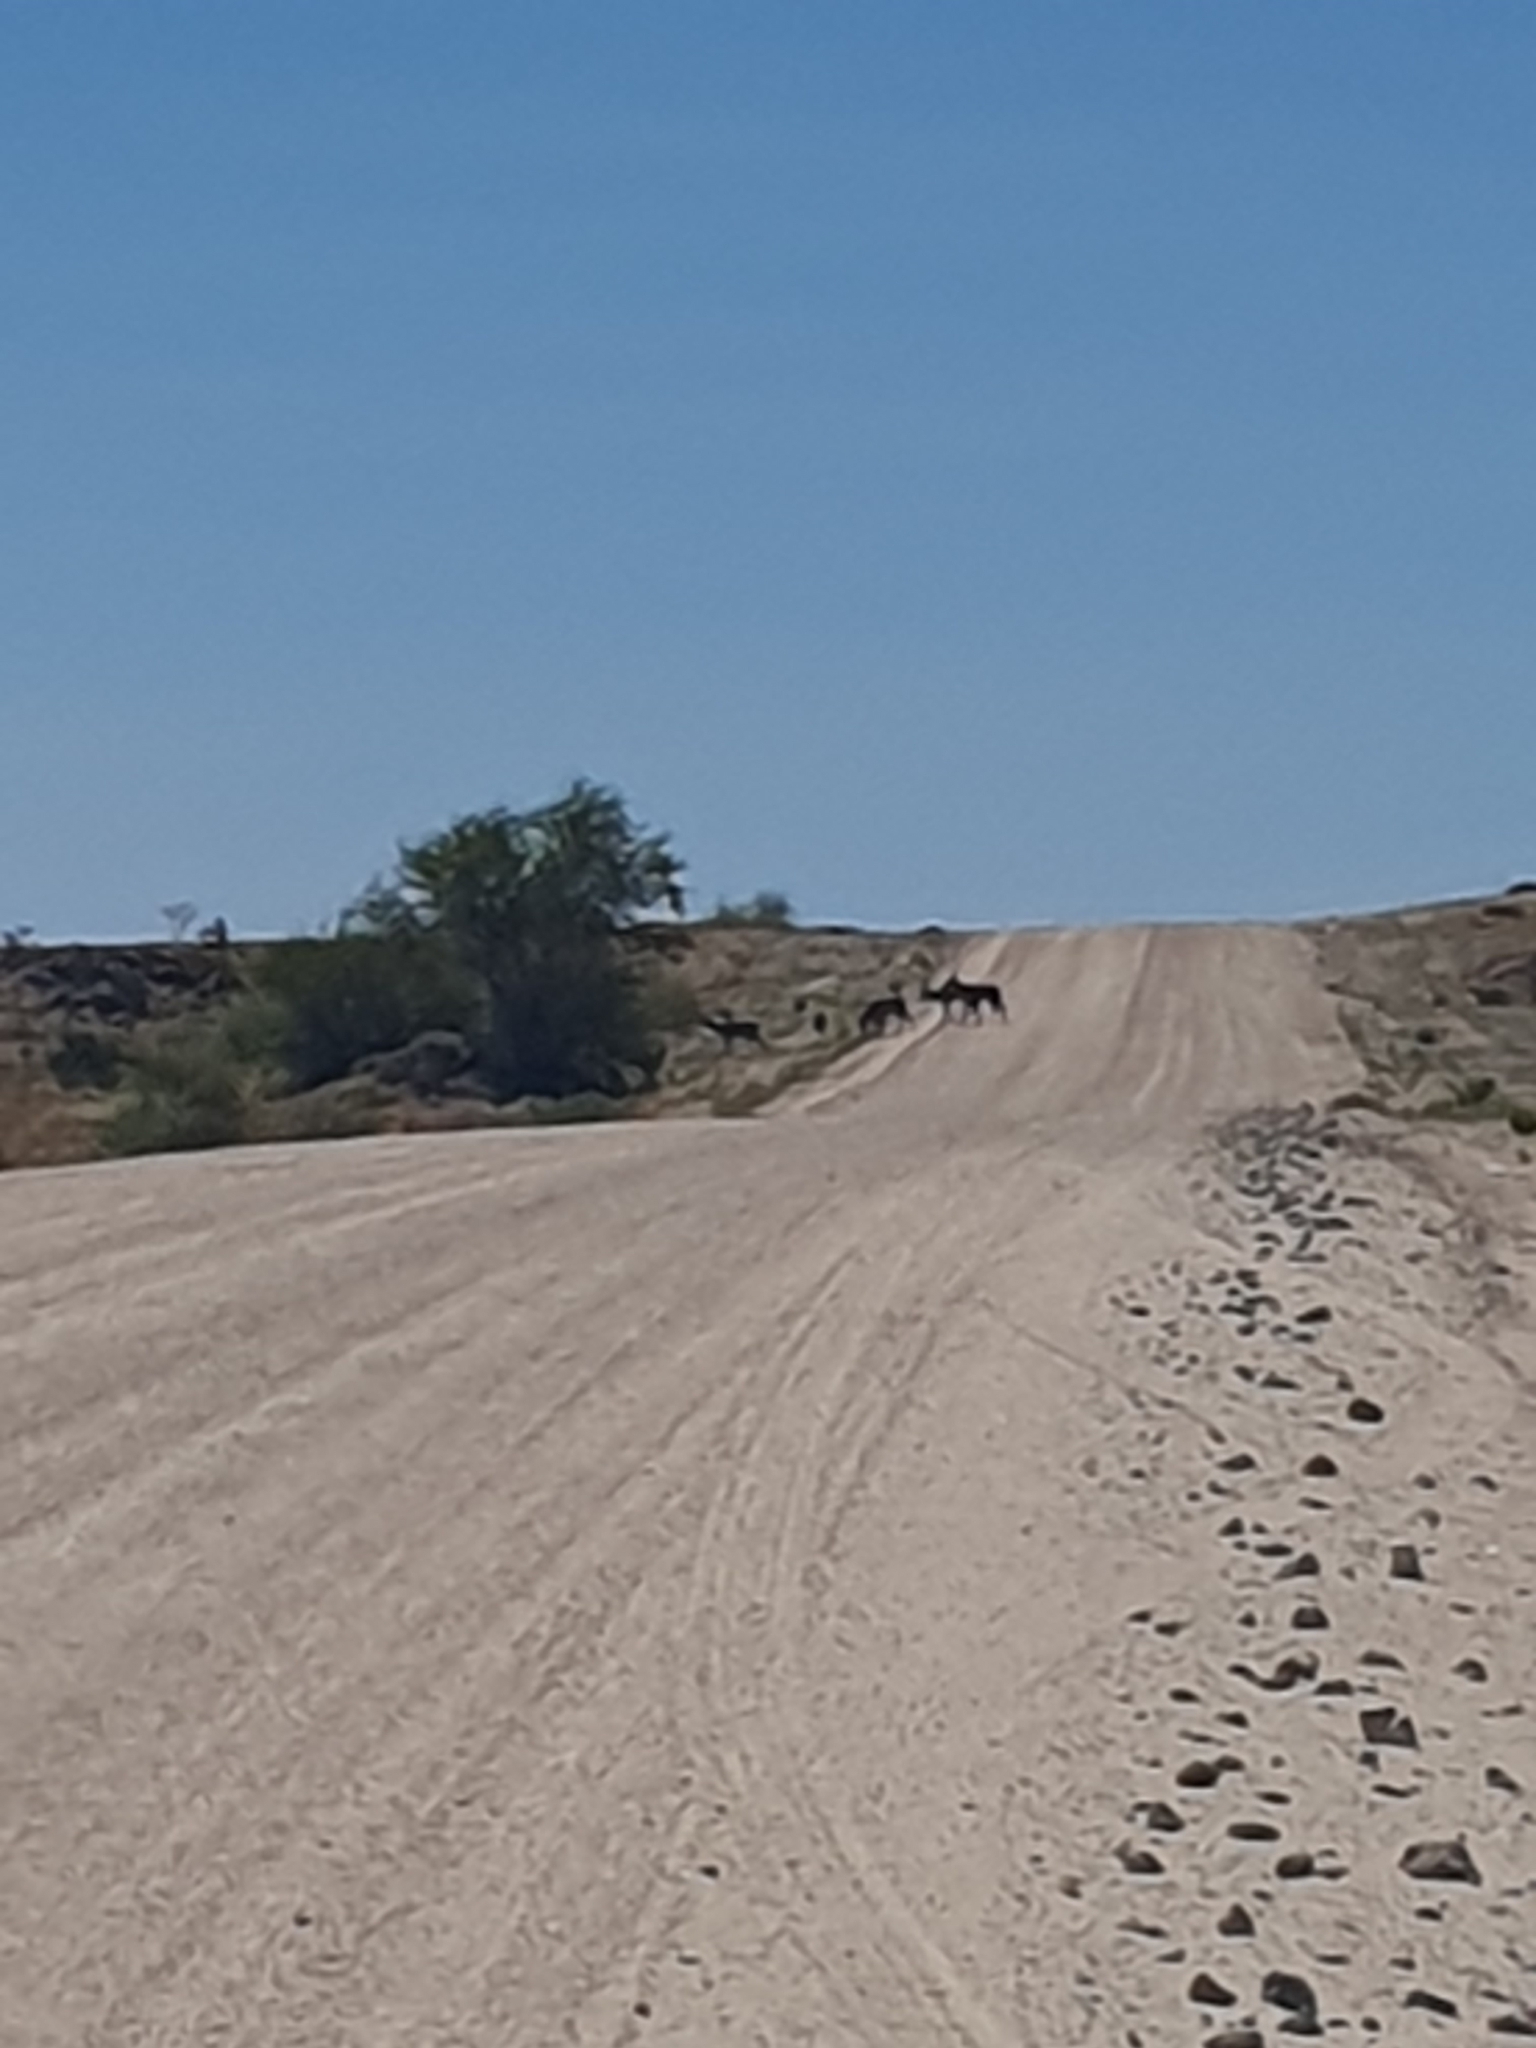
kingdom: Animalia
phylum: Chordata
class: Mammalia
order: Artiodactyla
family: Bovidae
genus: Tragelaphus
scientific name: Tragelaphus strepsiceros
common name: Greater kudu
